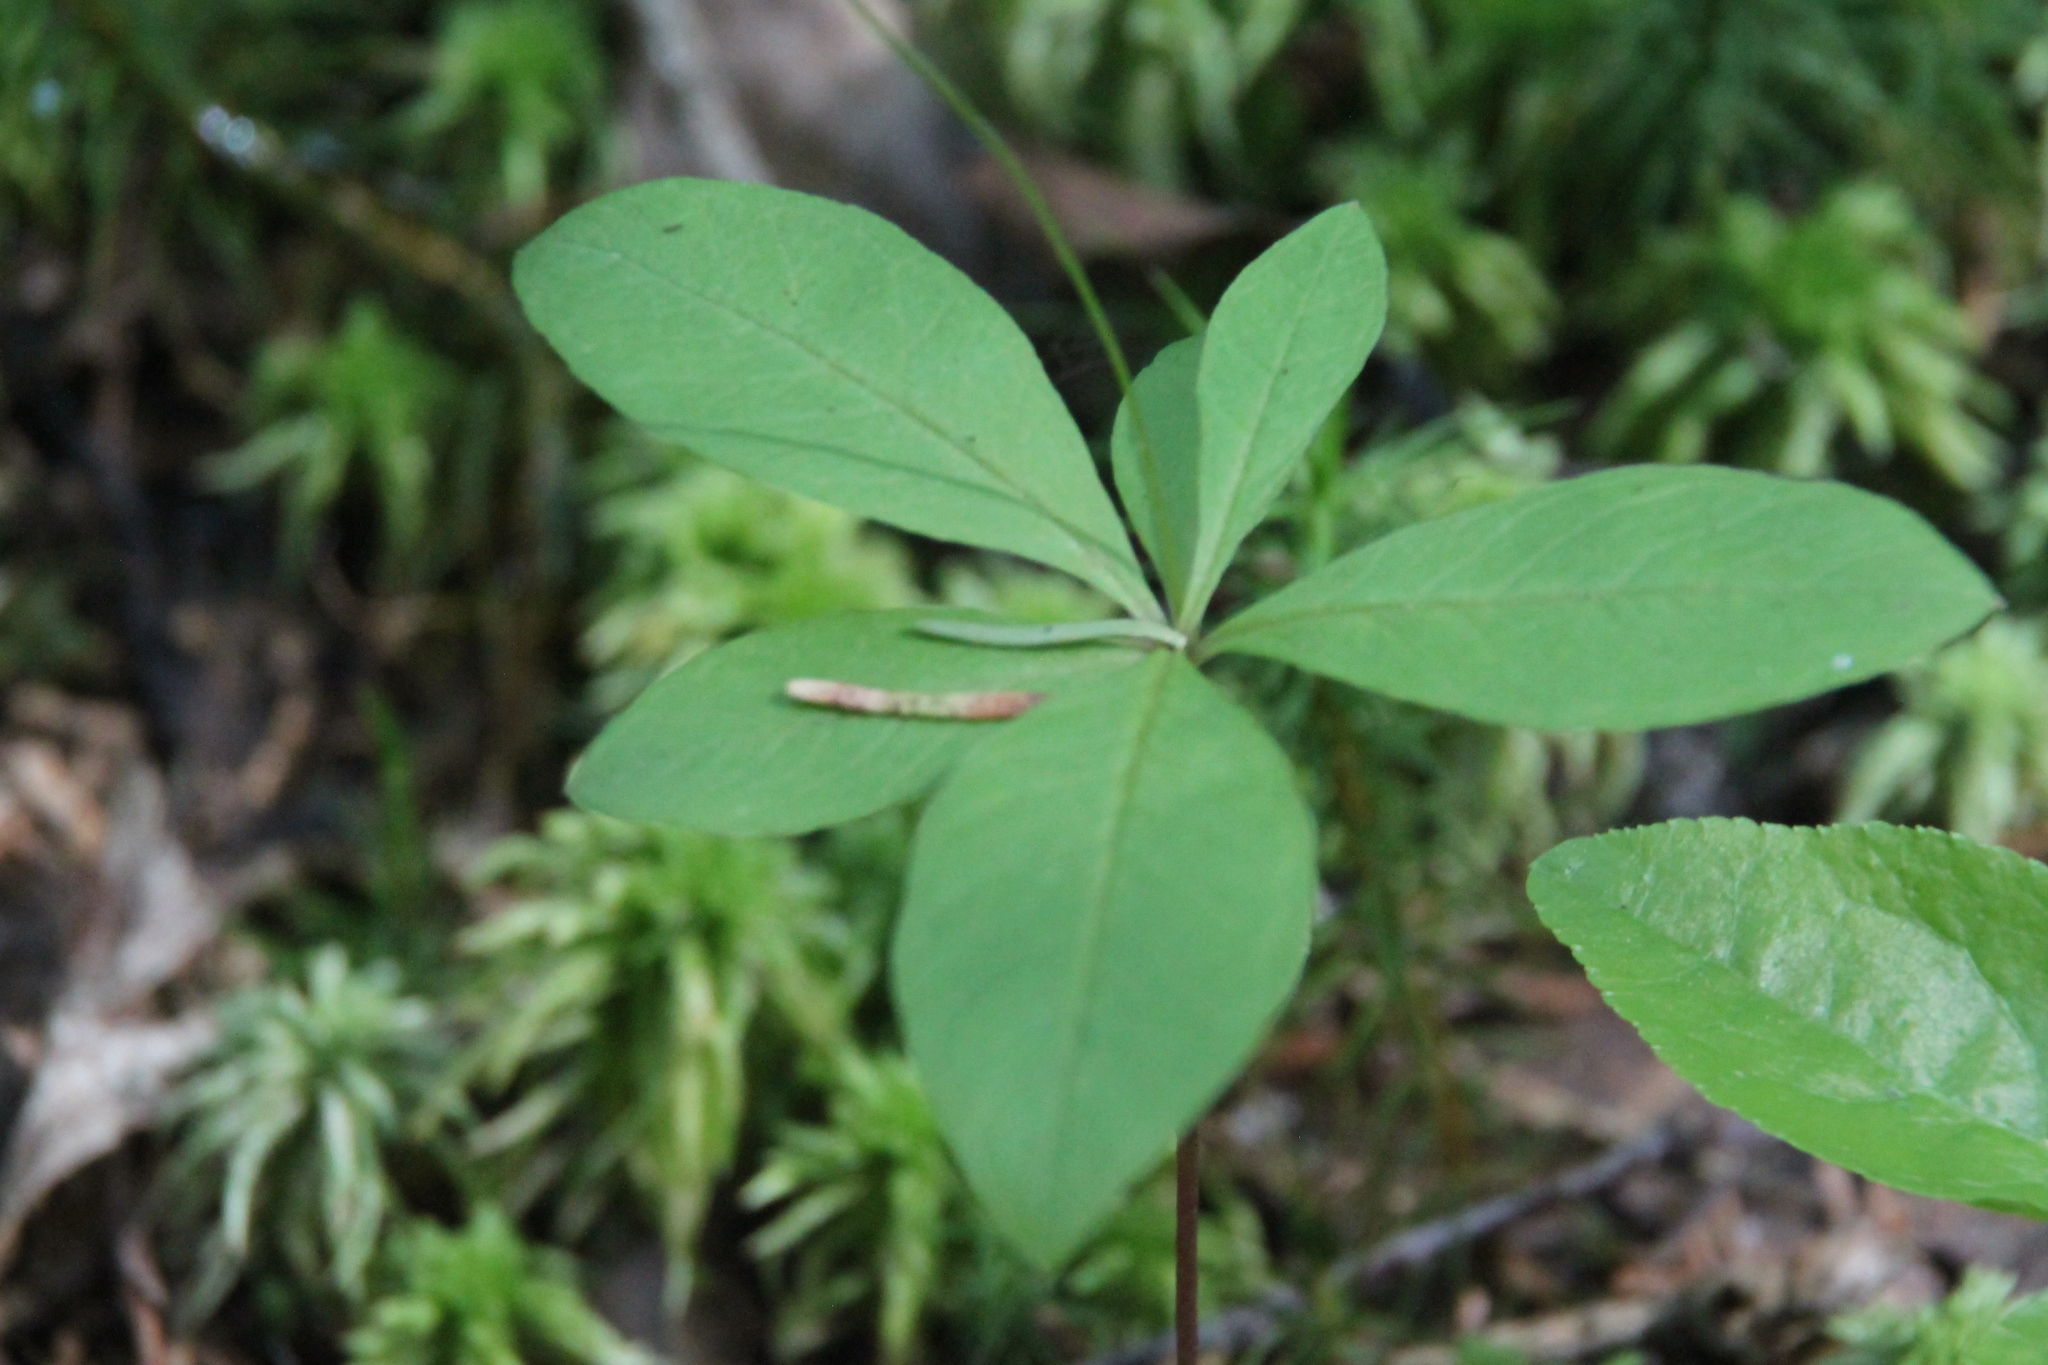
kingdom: Plantae
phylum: Tracheophyta
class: Magnoliopsida
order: Ericales
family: Primulaceae
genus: Lysimachia
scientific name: Lysimachia europaea
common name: Arctic starflower
